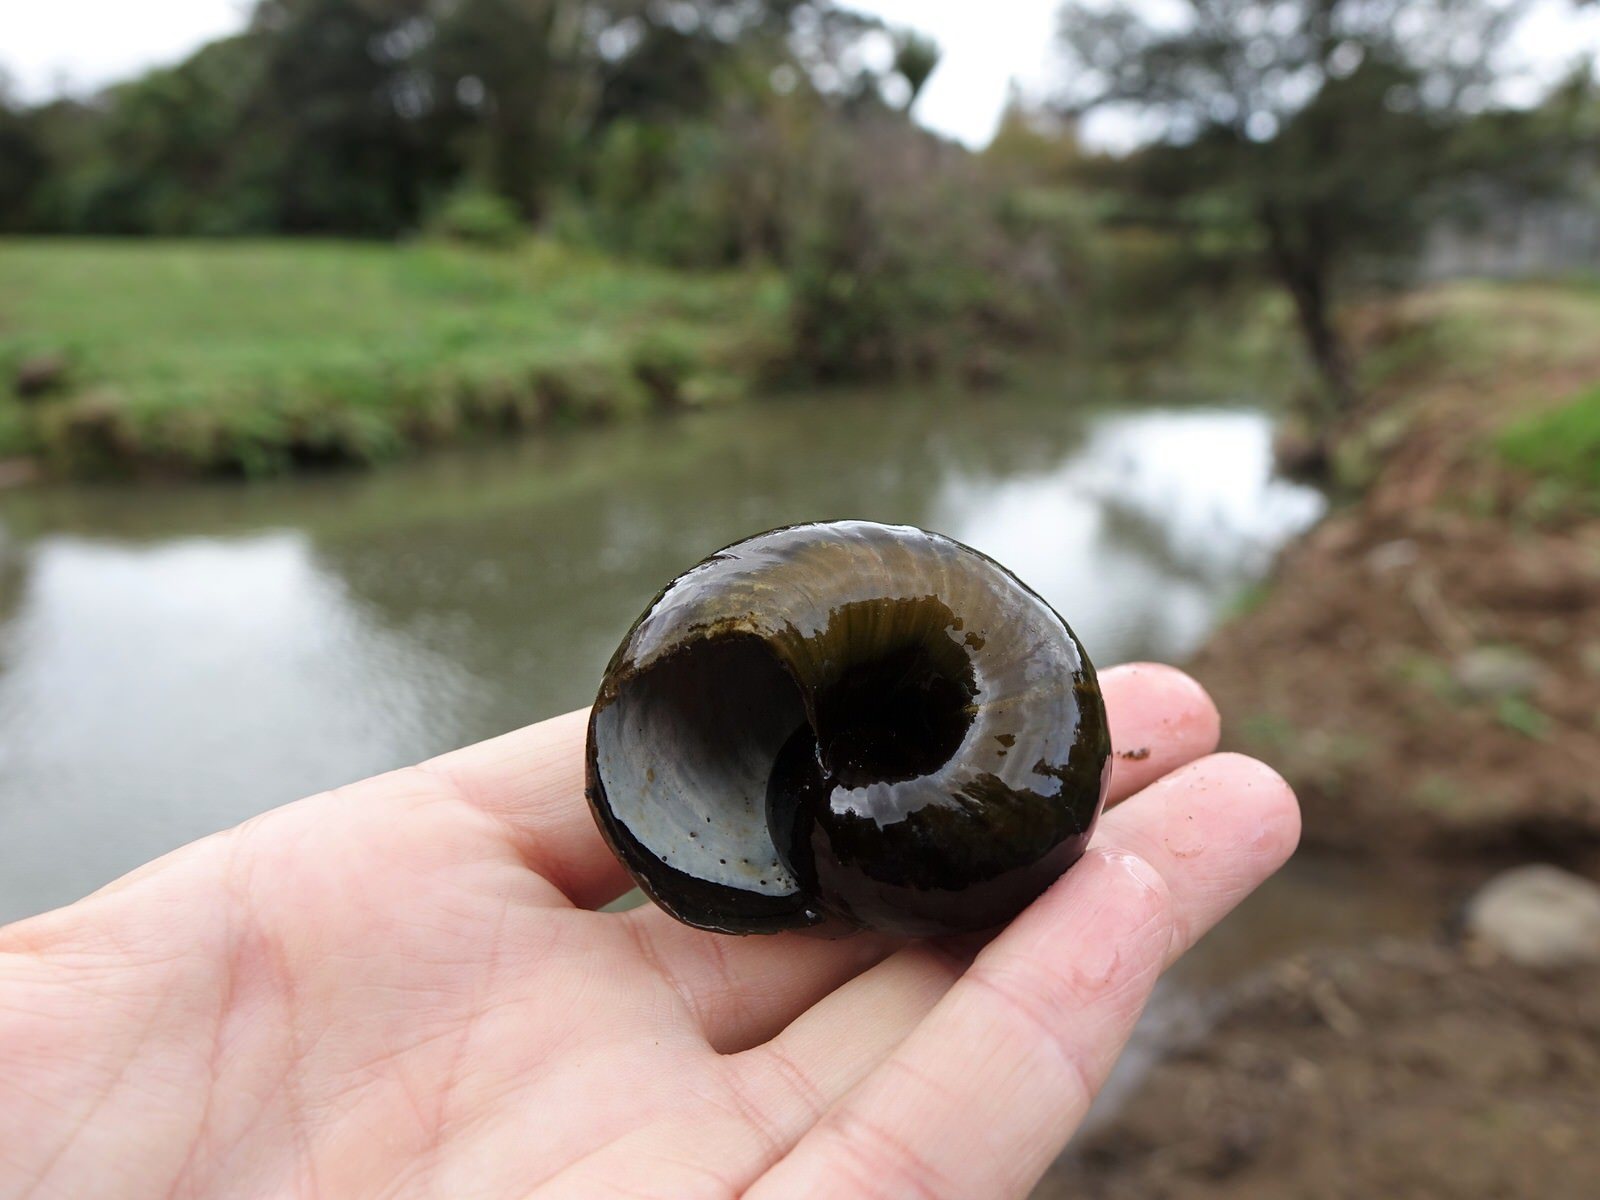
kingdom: Animalia
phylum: Mollusca
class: Gastropoda
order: Stylommatophora
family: Rhytididae
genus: Paryphanta
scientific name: Paryphanta busbyi
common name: Kauri snail
